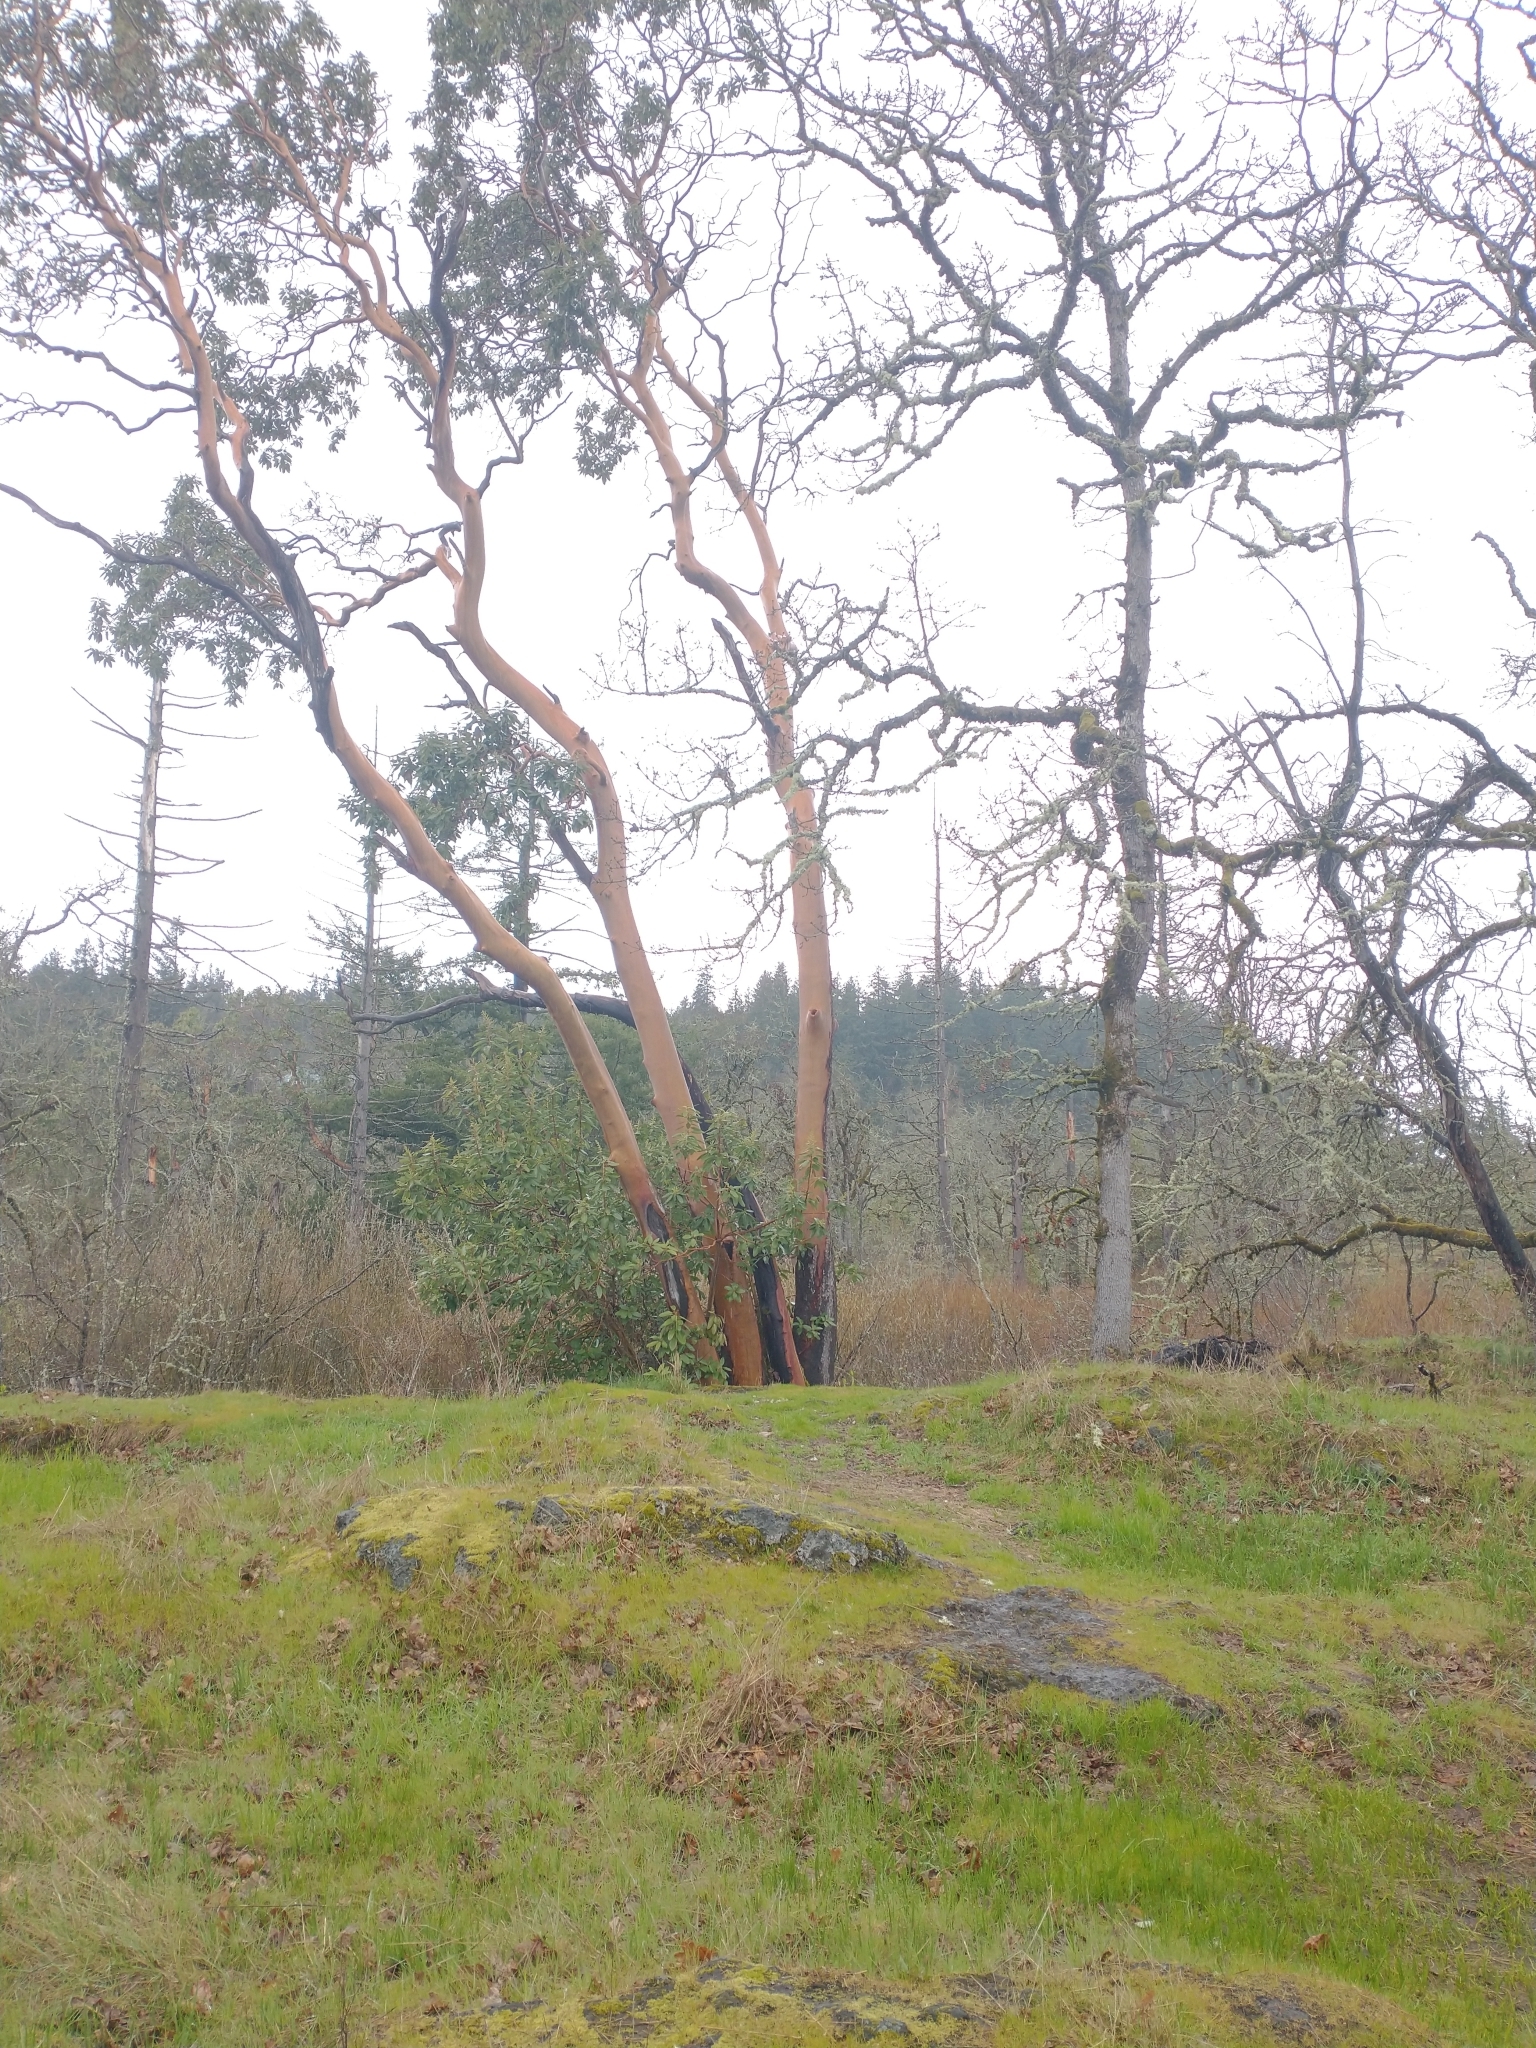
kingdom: Plantae
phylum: Tracheophyta
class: Magnoliopsida
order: Ericales
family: Ericaceae
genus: Arbutus
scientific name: Arbutus menziesii
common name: Pacific madrone
